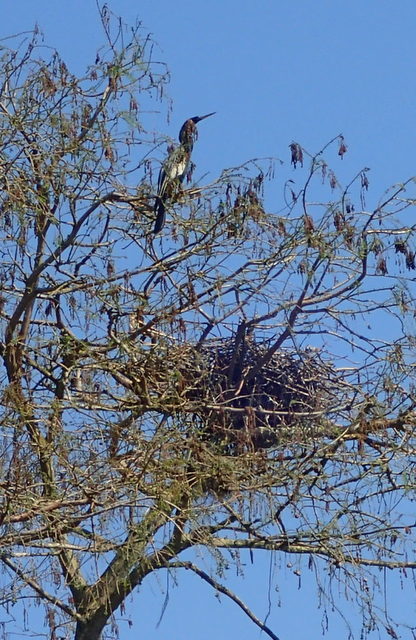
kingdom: Animalia
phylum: Chordata
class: Aves
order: Suliformes
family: Anhingidae
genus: Anhinga
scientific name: Anhinga anhinga
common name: Anhinga
